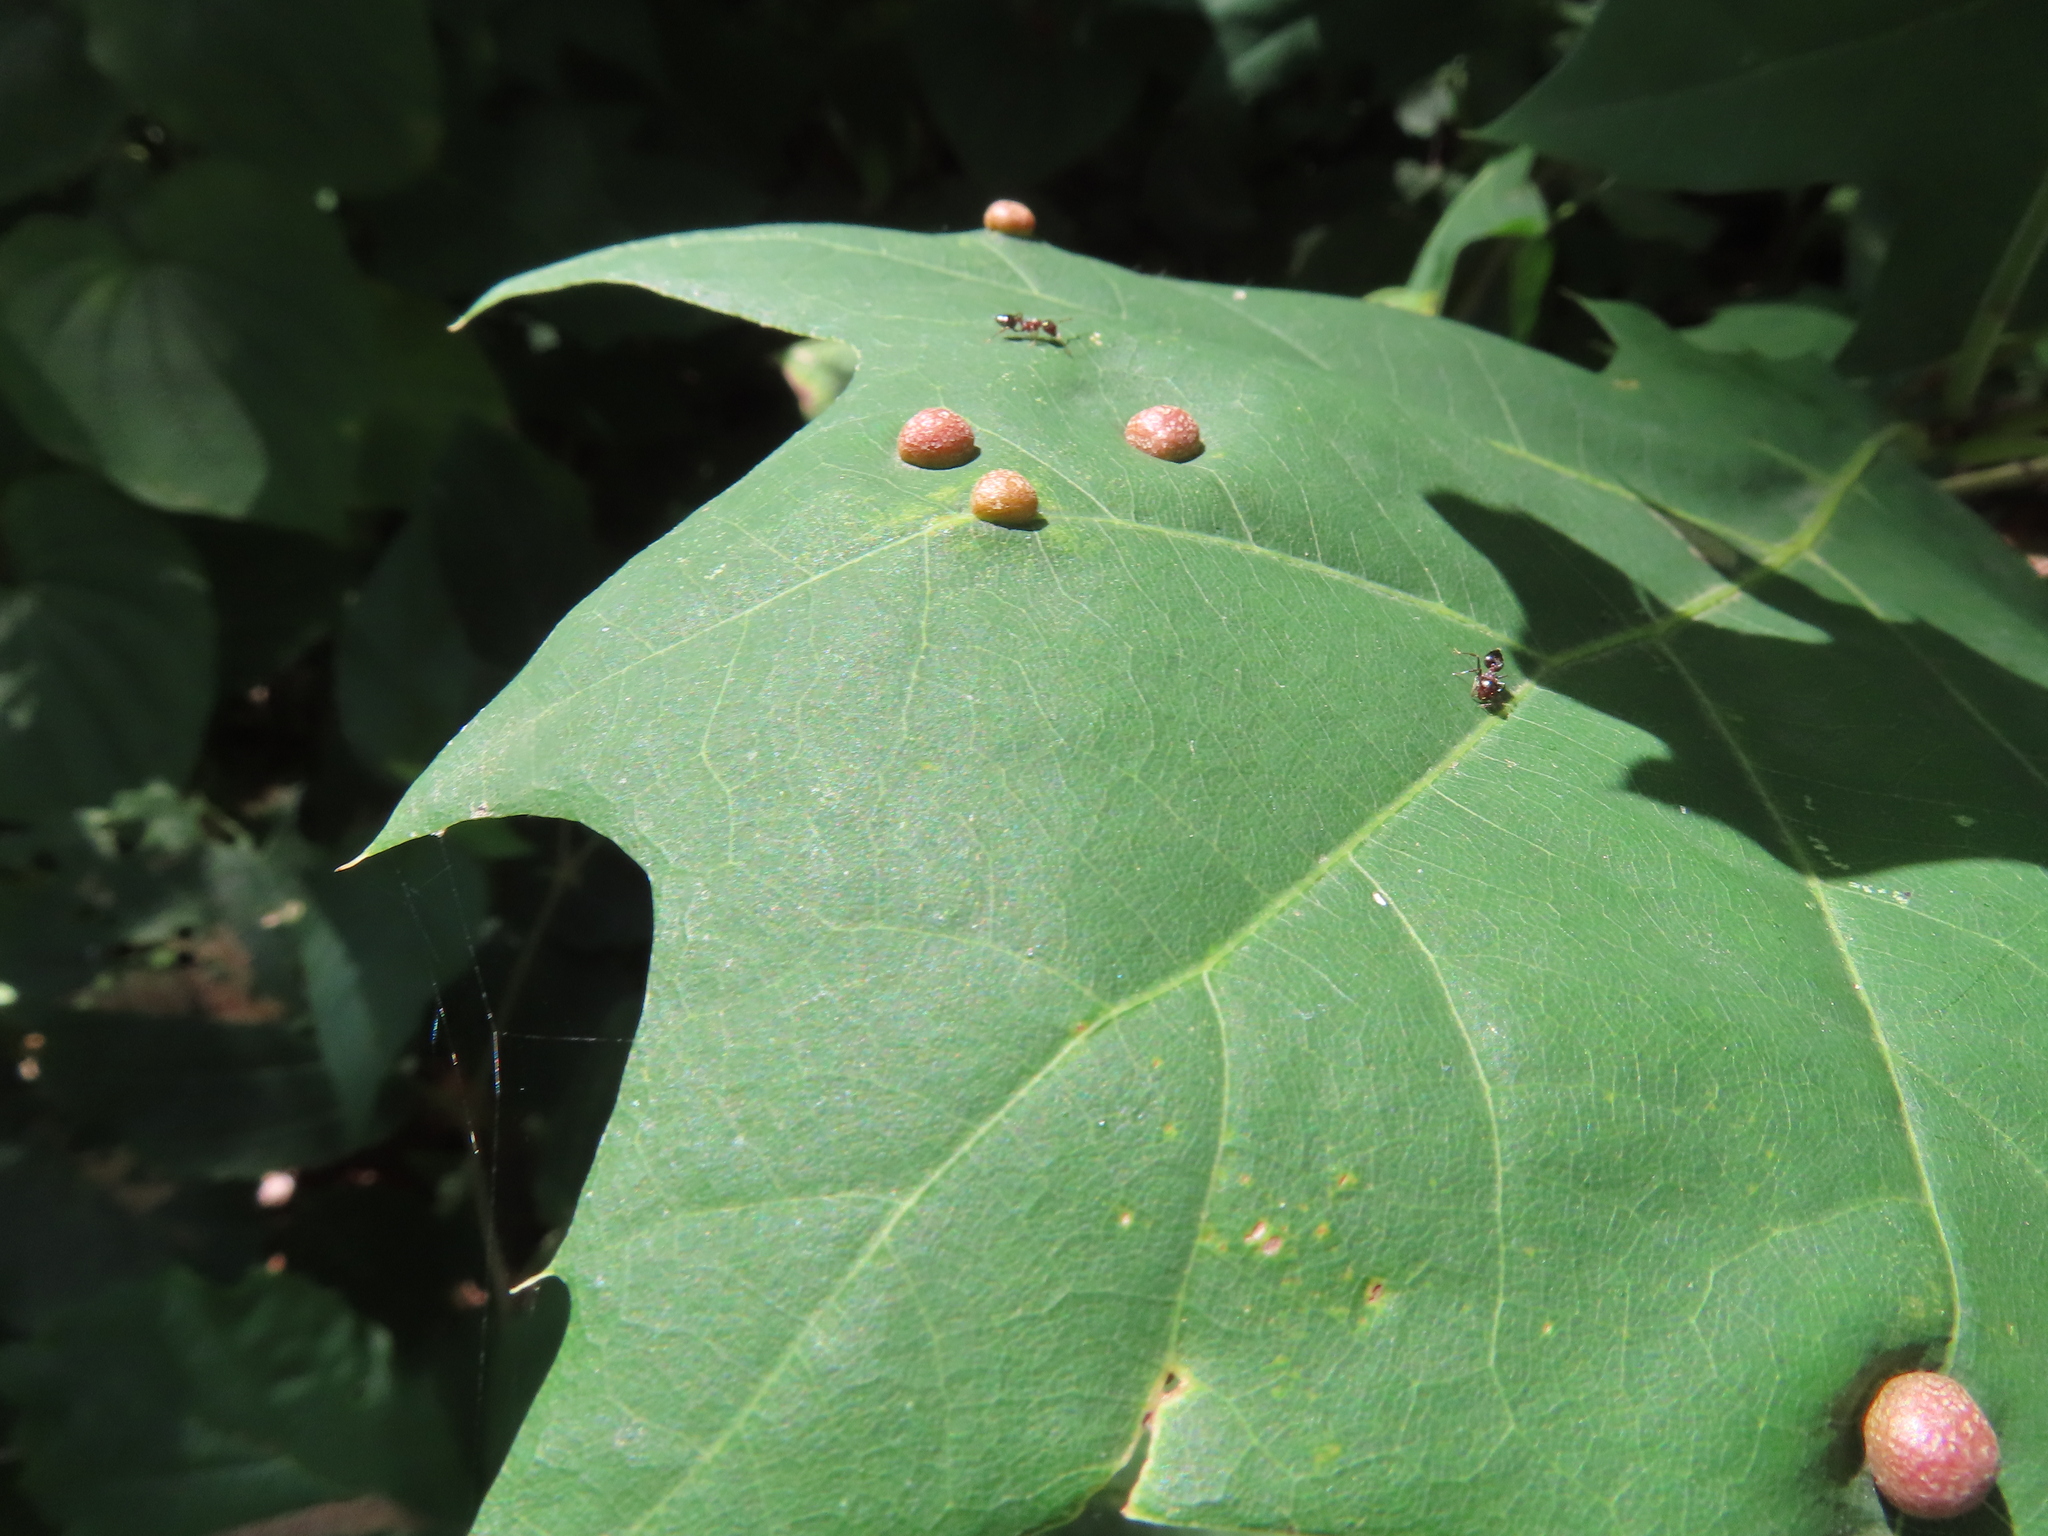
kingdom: Animalia
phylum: Arthropoda
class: Insecta
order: Diptera
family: Cecidomyiidae
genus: Polystepha
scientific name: Polystepha pilulae
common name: Oak leaf gall midge
